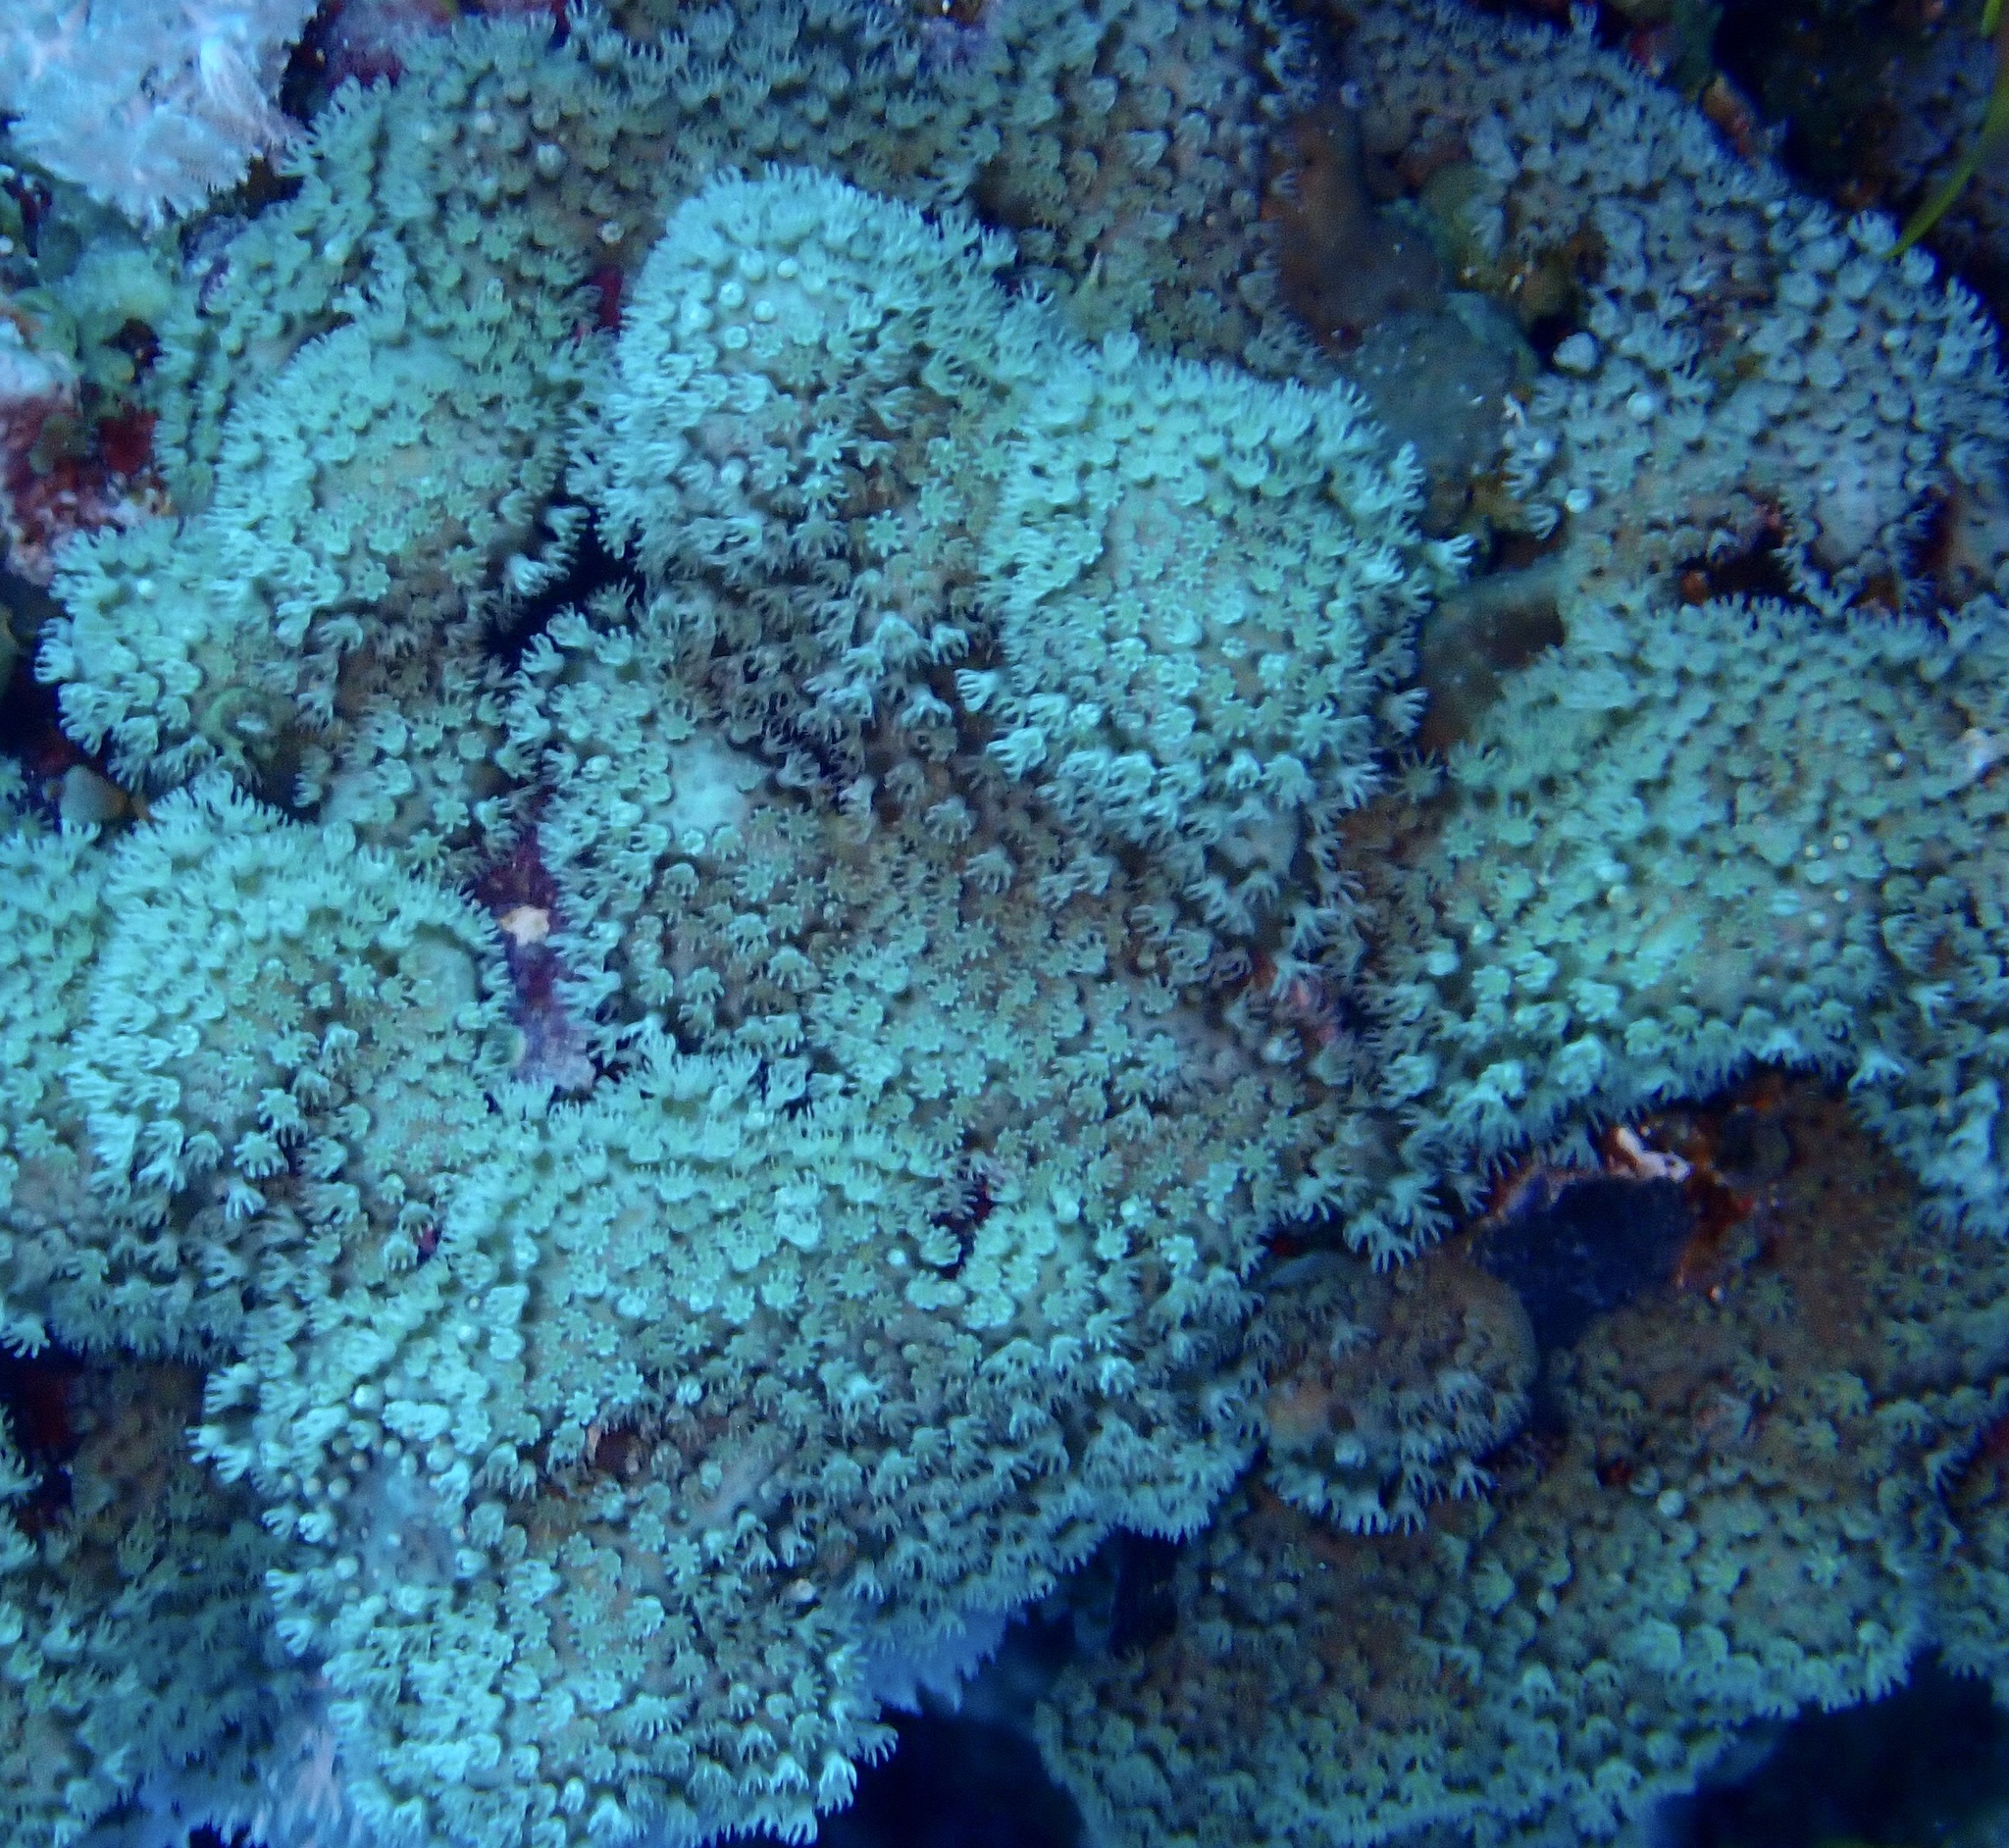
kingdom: Animalia
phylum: Cnidaria
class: Anthozoa
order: Malacalcyonacea
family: Lemnaliadae
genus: Rhytisma
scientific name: Rhytisma fulvum
